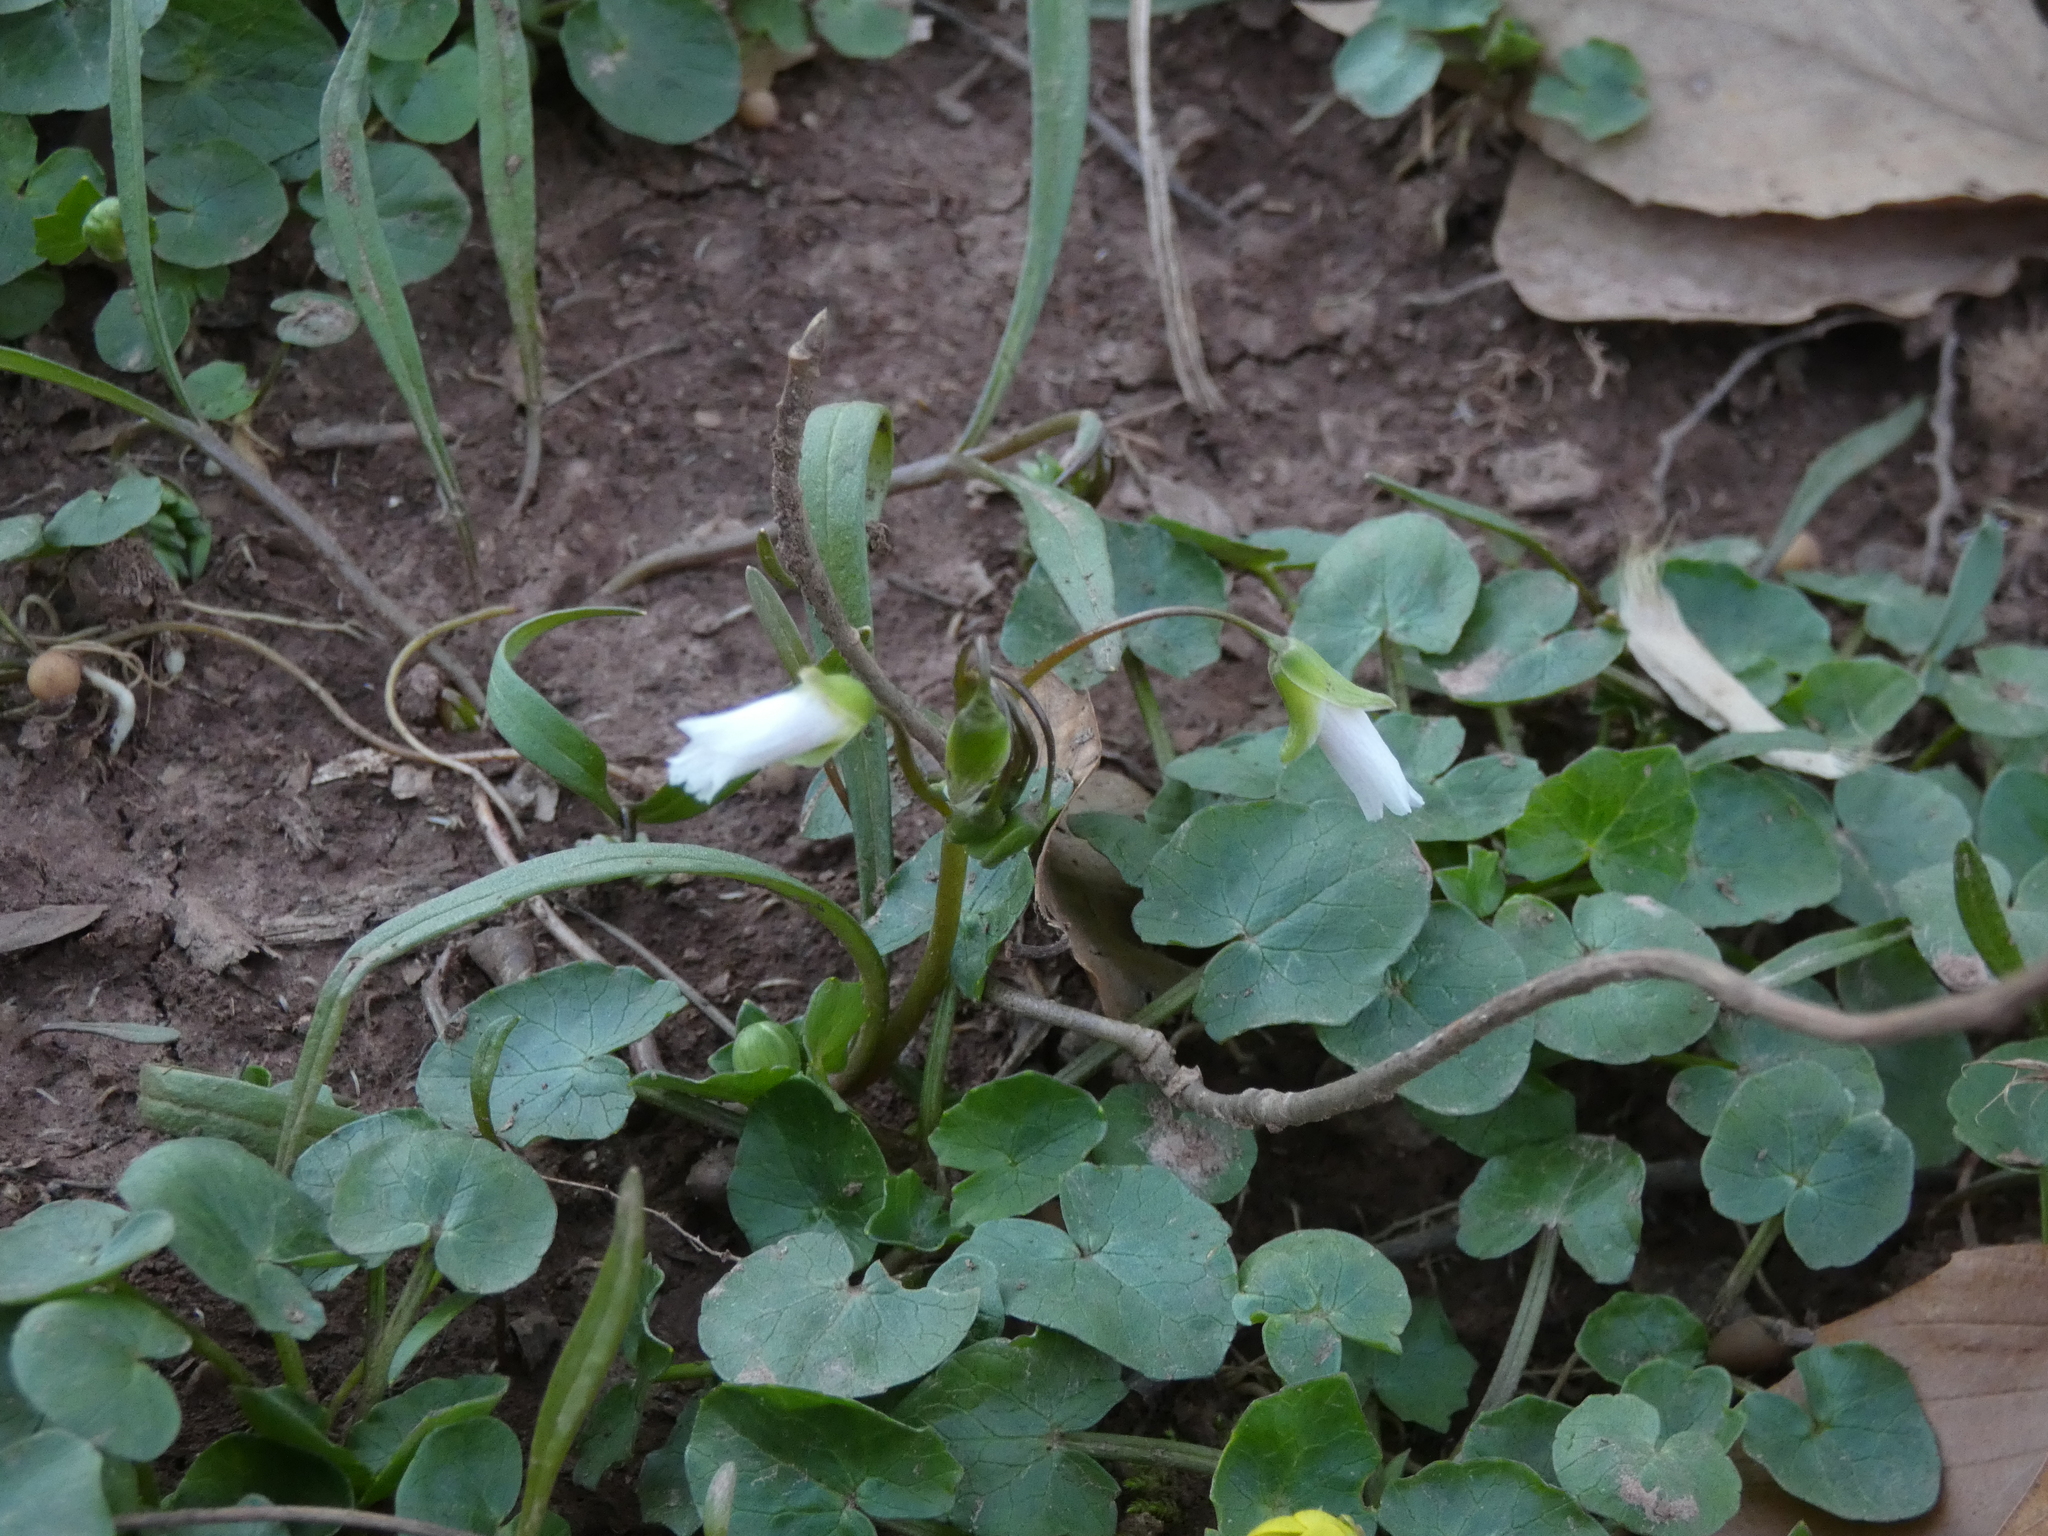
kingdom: Plantae
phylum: Tracheophyta
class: Magnoliopsida
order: Caryophyllales
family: Montiaceae
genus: Claytonia
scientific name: Claytonia virginica
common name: Virginia springbeauty
